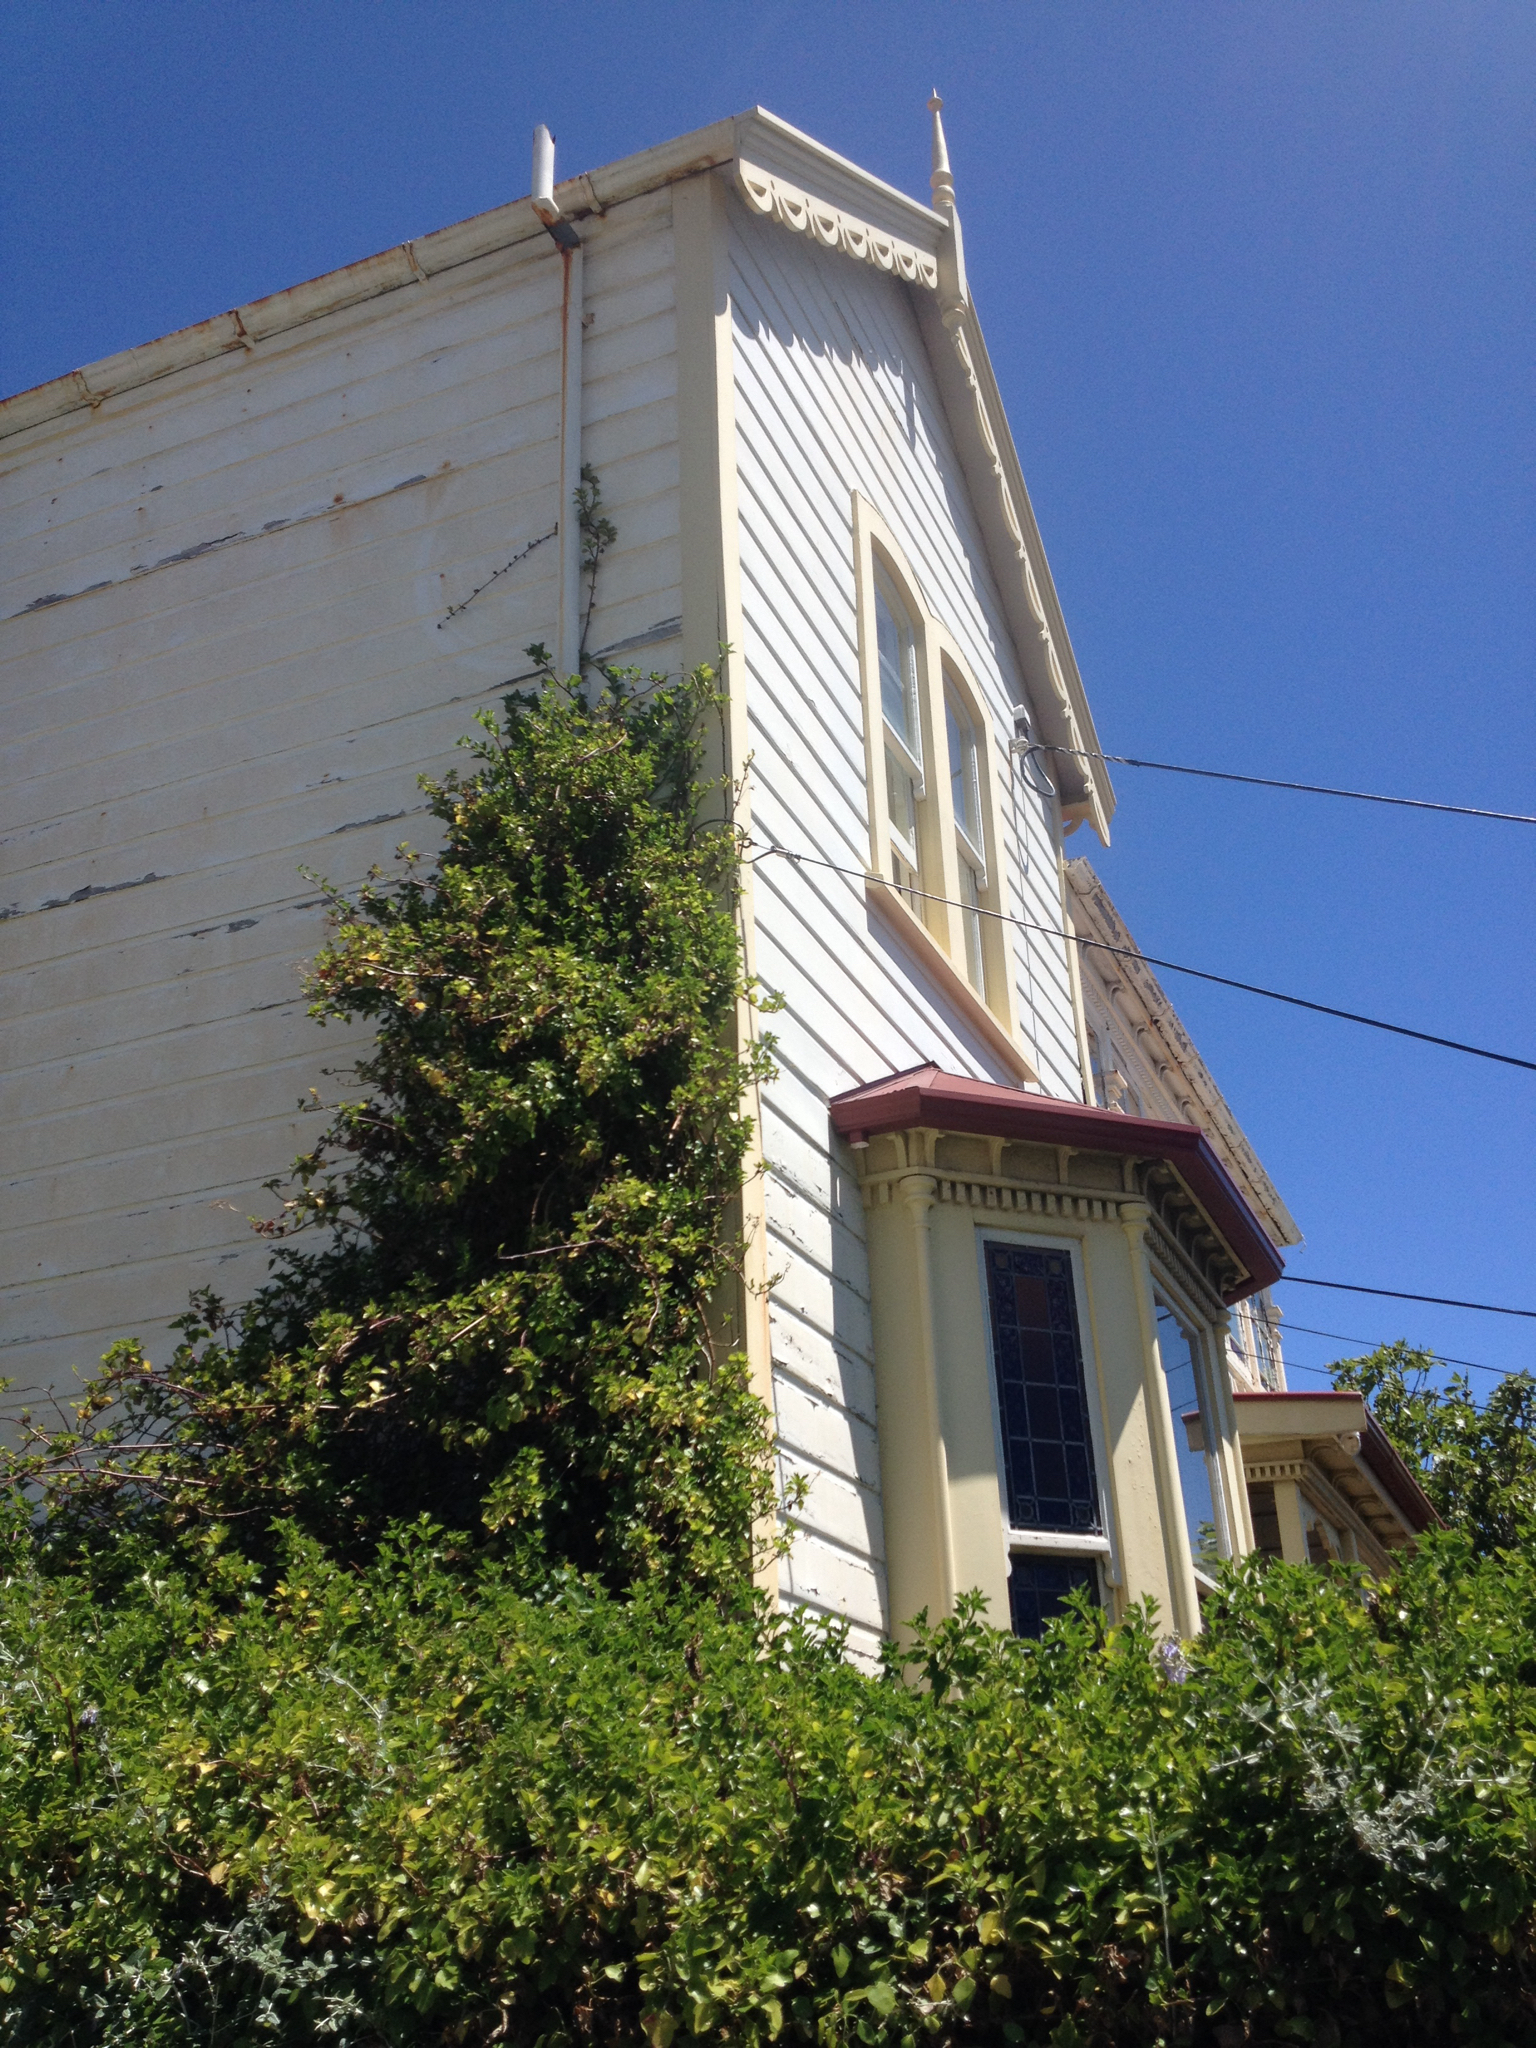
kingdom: Plantae
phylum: Tracheophyta
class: Magnoliopsida
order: Asterales
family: Asteraceae
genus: Senecio
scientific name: Senecio angulatus
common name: Climbing groundsel
